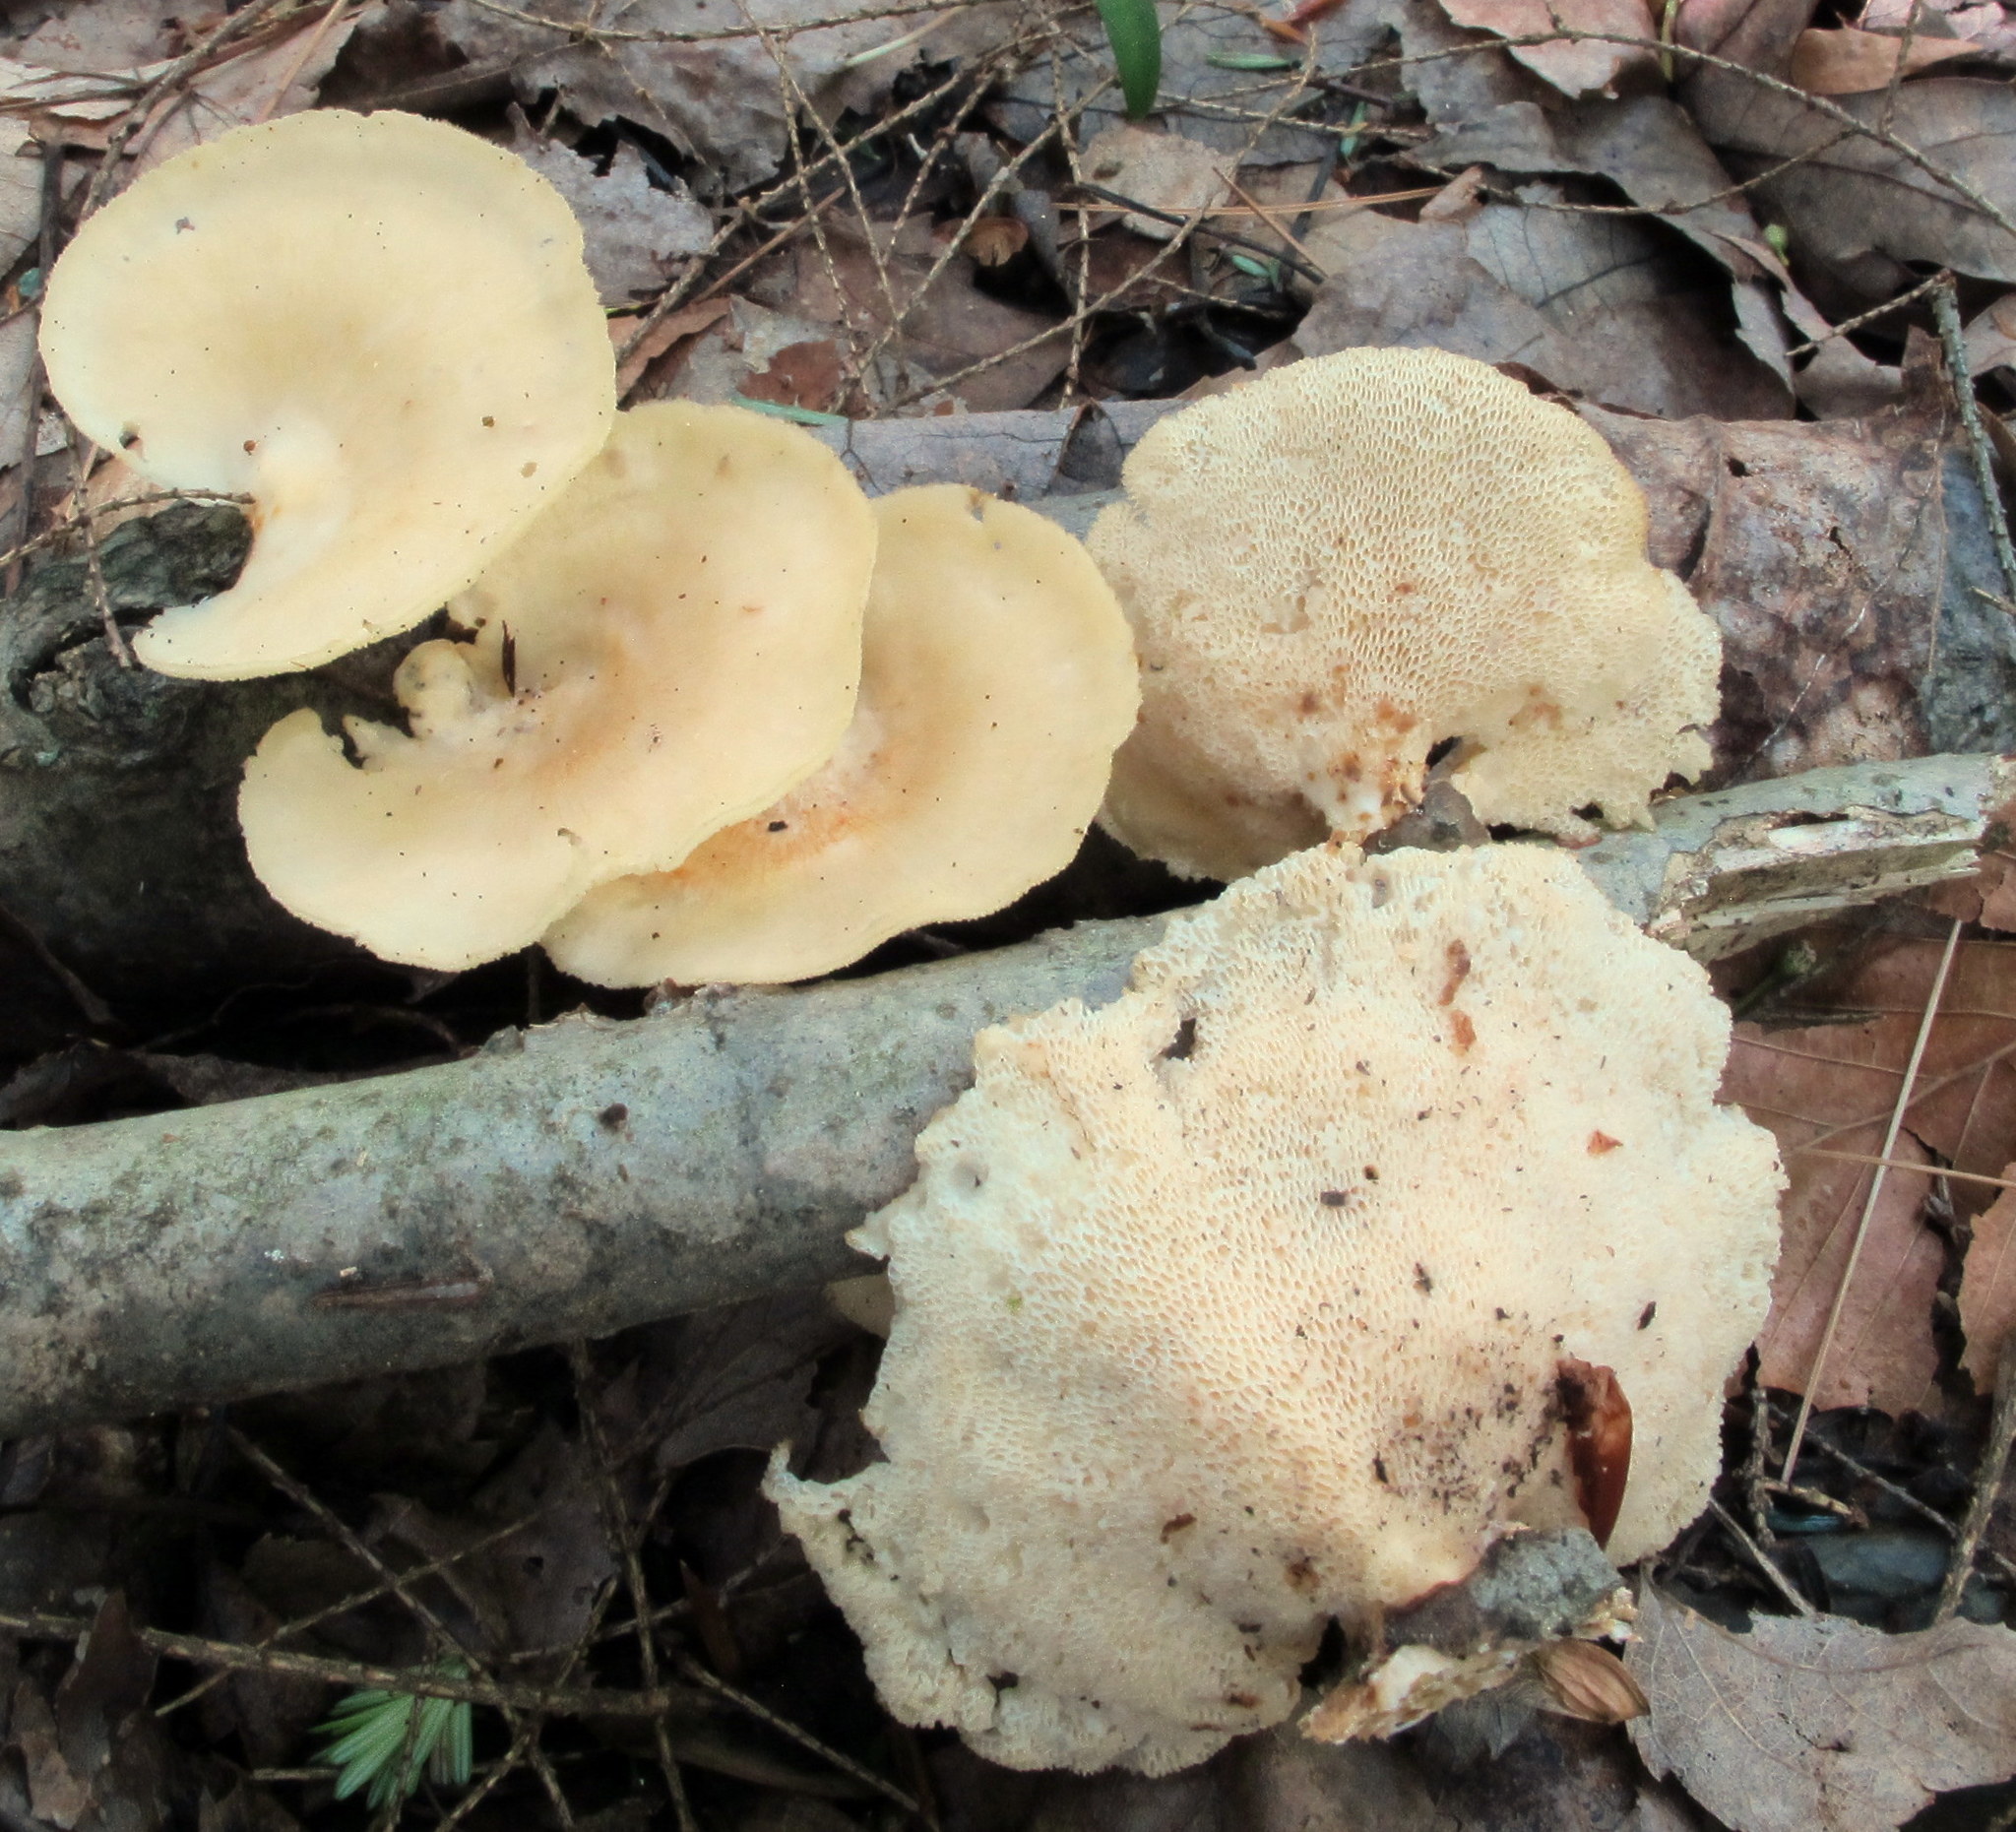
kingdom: Fungi
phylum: Basidiomycota
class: Agaricomycetes
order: Polyporales
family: Polyporaceae
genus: Neofavolus
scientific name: Neofavolus alveolaris
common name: Hexagonal-pored polypore
